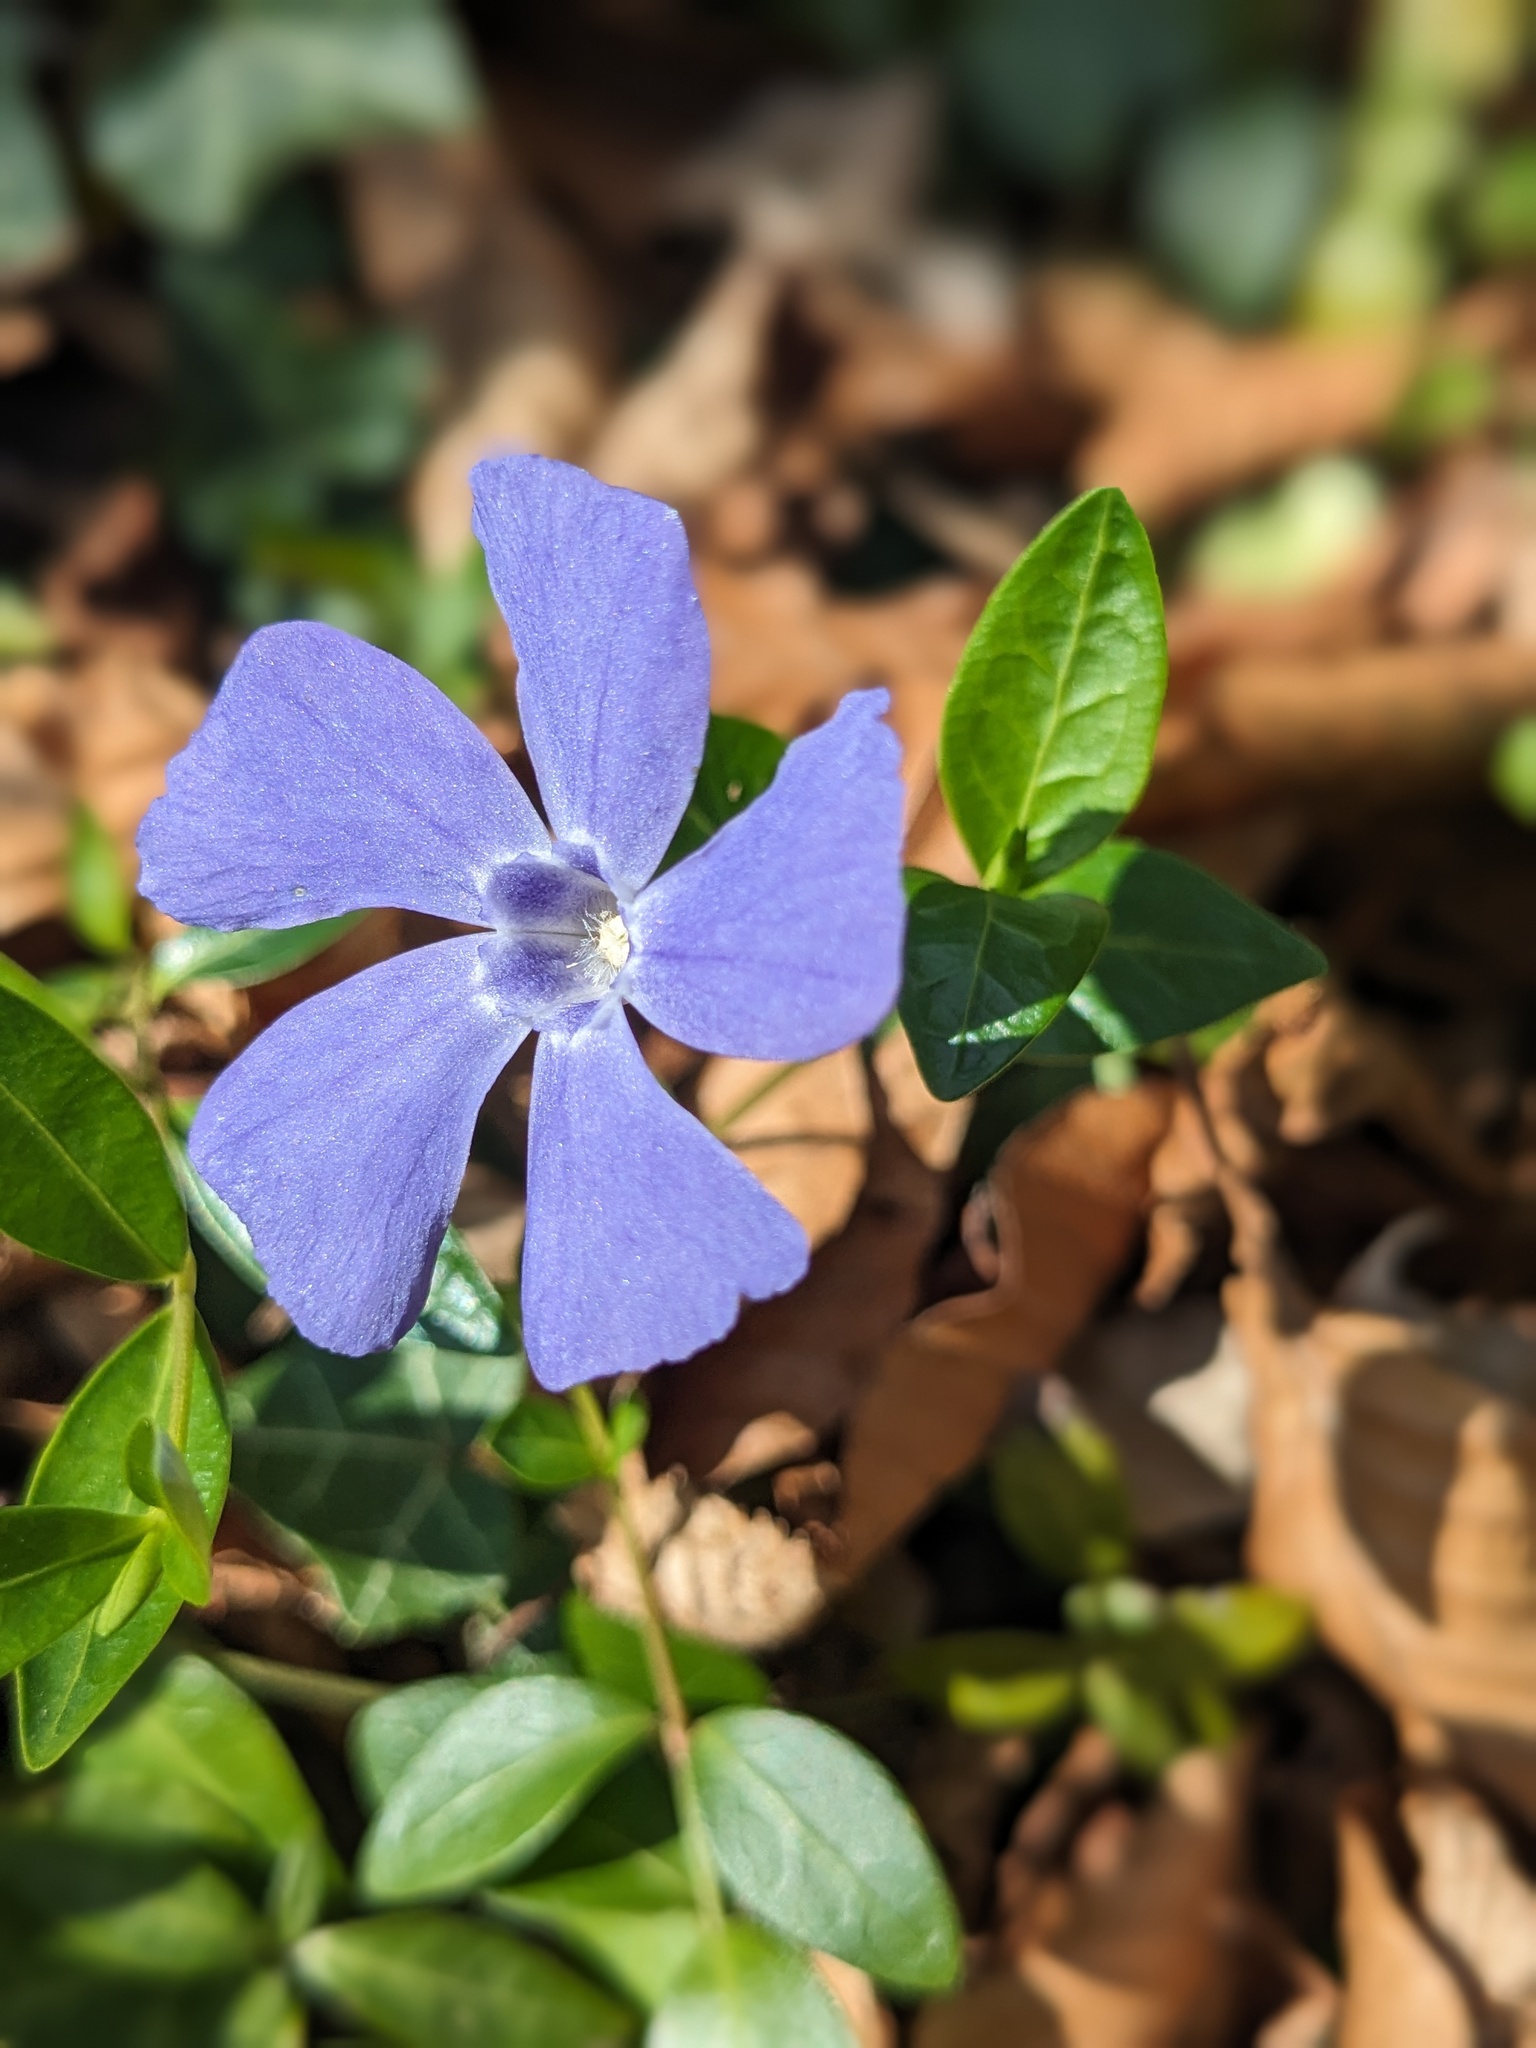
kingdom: Plantae
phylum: Tracheophyta
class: Magnoliopsida
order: Gentianales
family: Apocynaceae
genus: Vinca
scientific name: Vinca minor
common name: Lesser periwinkle
